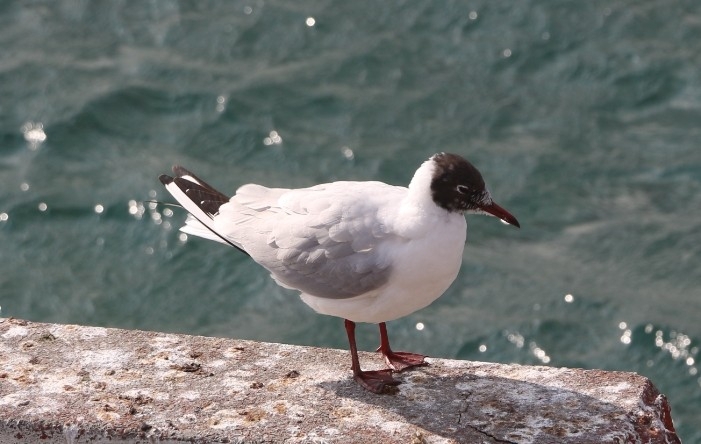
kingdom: Animalia
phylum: Chordata
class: Aves
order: Charadriiformes
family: Laridae
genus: Chroicocephalus
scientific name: Chroicocephalus ridibundus
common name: Black-headed gull
